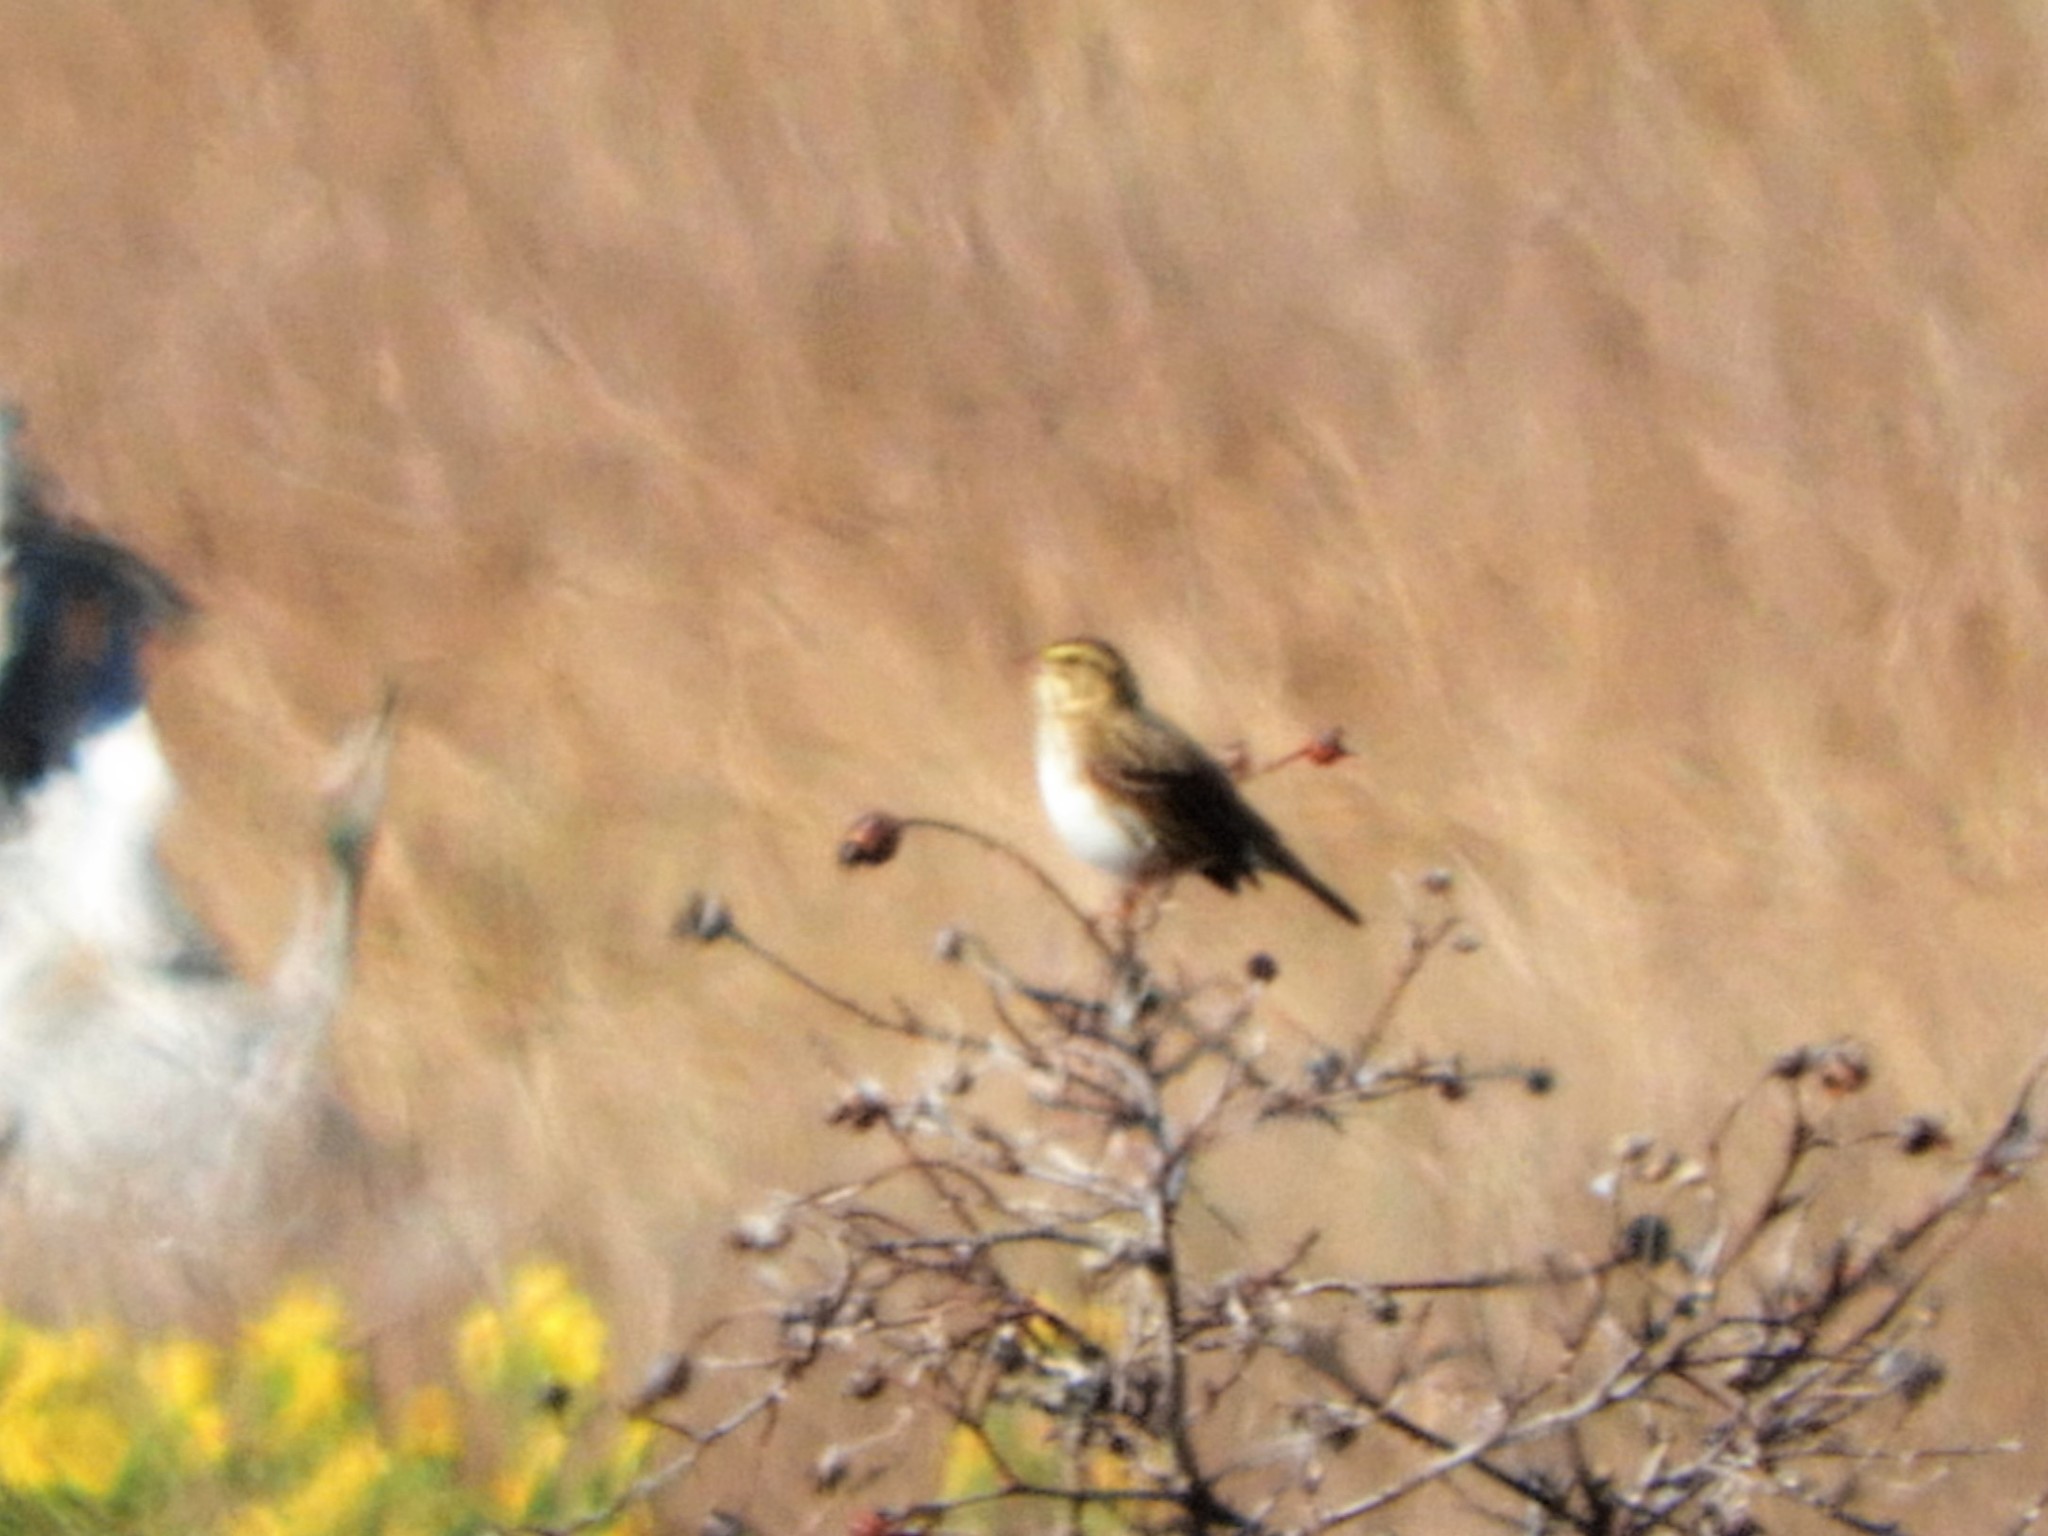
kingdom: Animalia
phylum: Chordata
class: Aves
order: Passeriformes
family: Passerellidae
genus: Passerculus
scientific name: Passerculus sandwichensis
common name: Savannah sparrow
